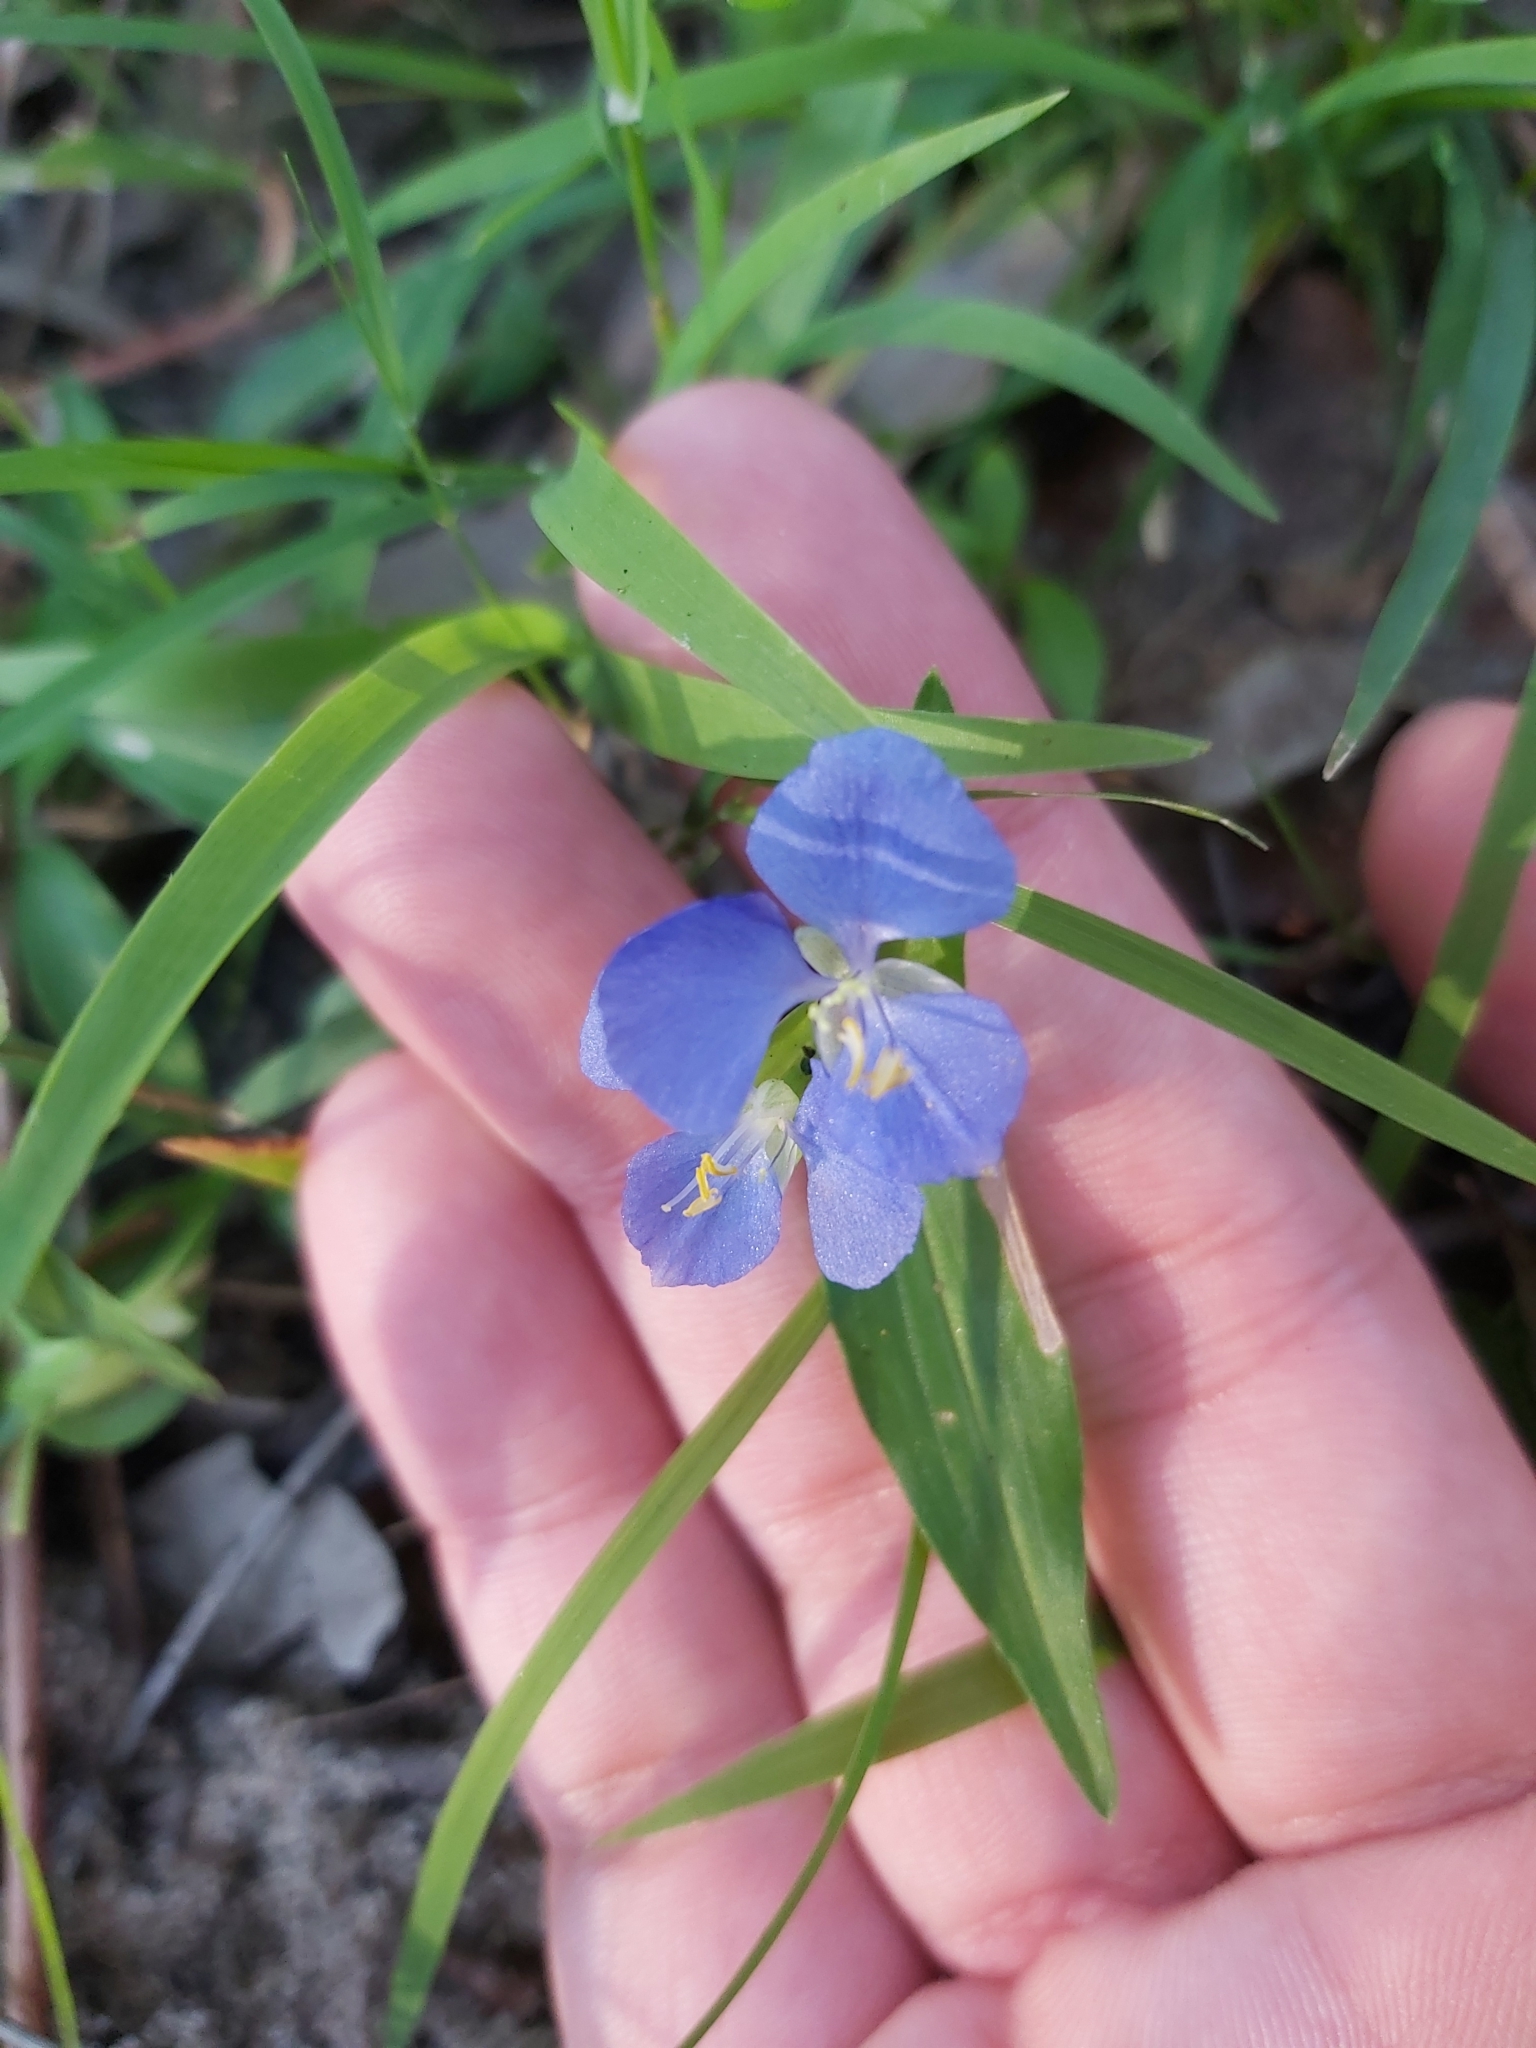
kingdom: Plantae
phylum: Tracheophyta
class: Liliopsida
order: Commelinales
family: Commelinaceae
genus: Commelina
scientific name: Commelina cyanea
